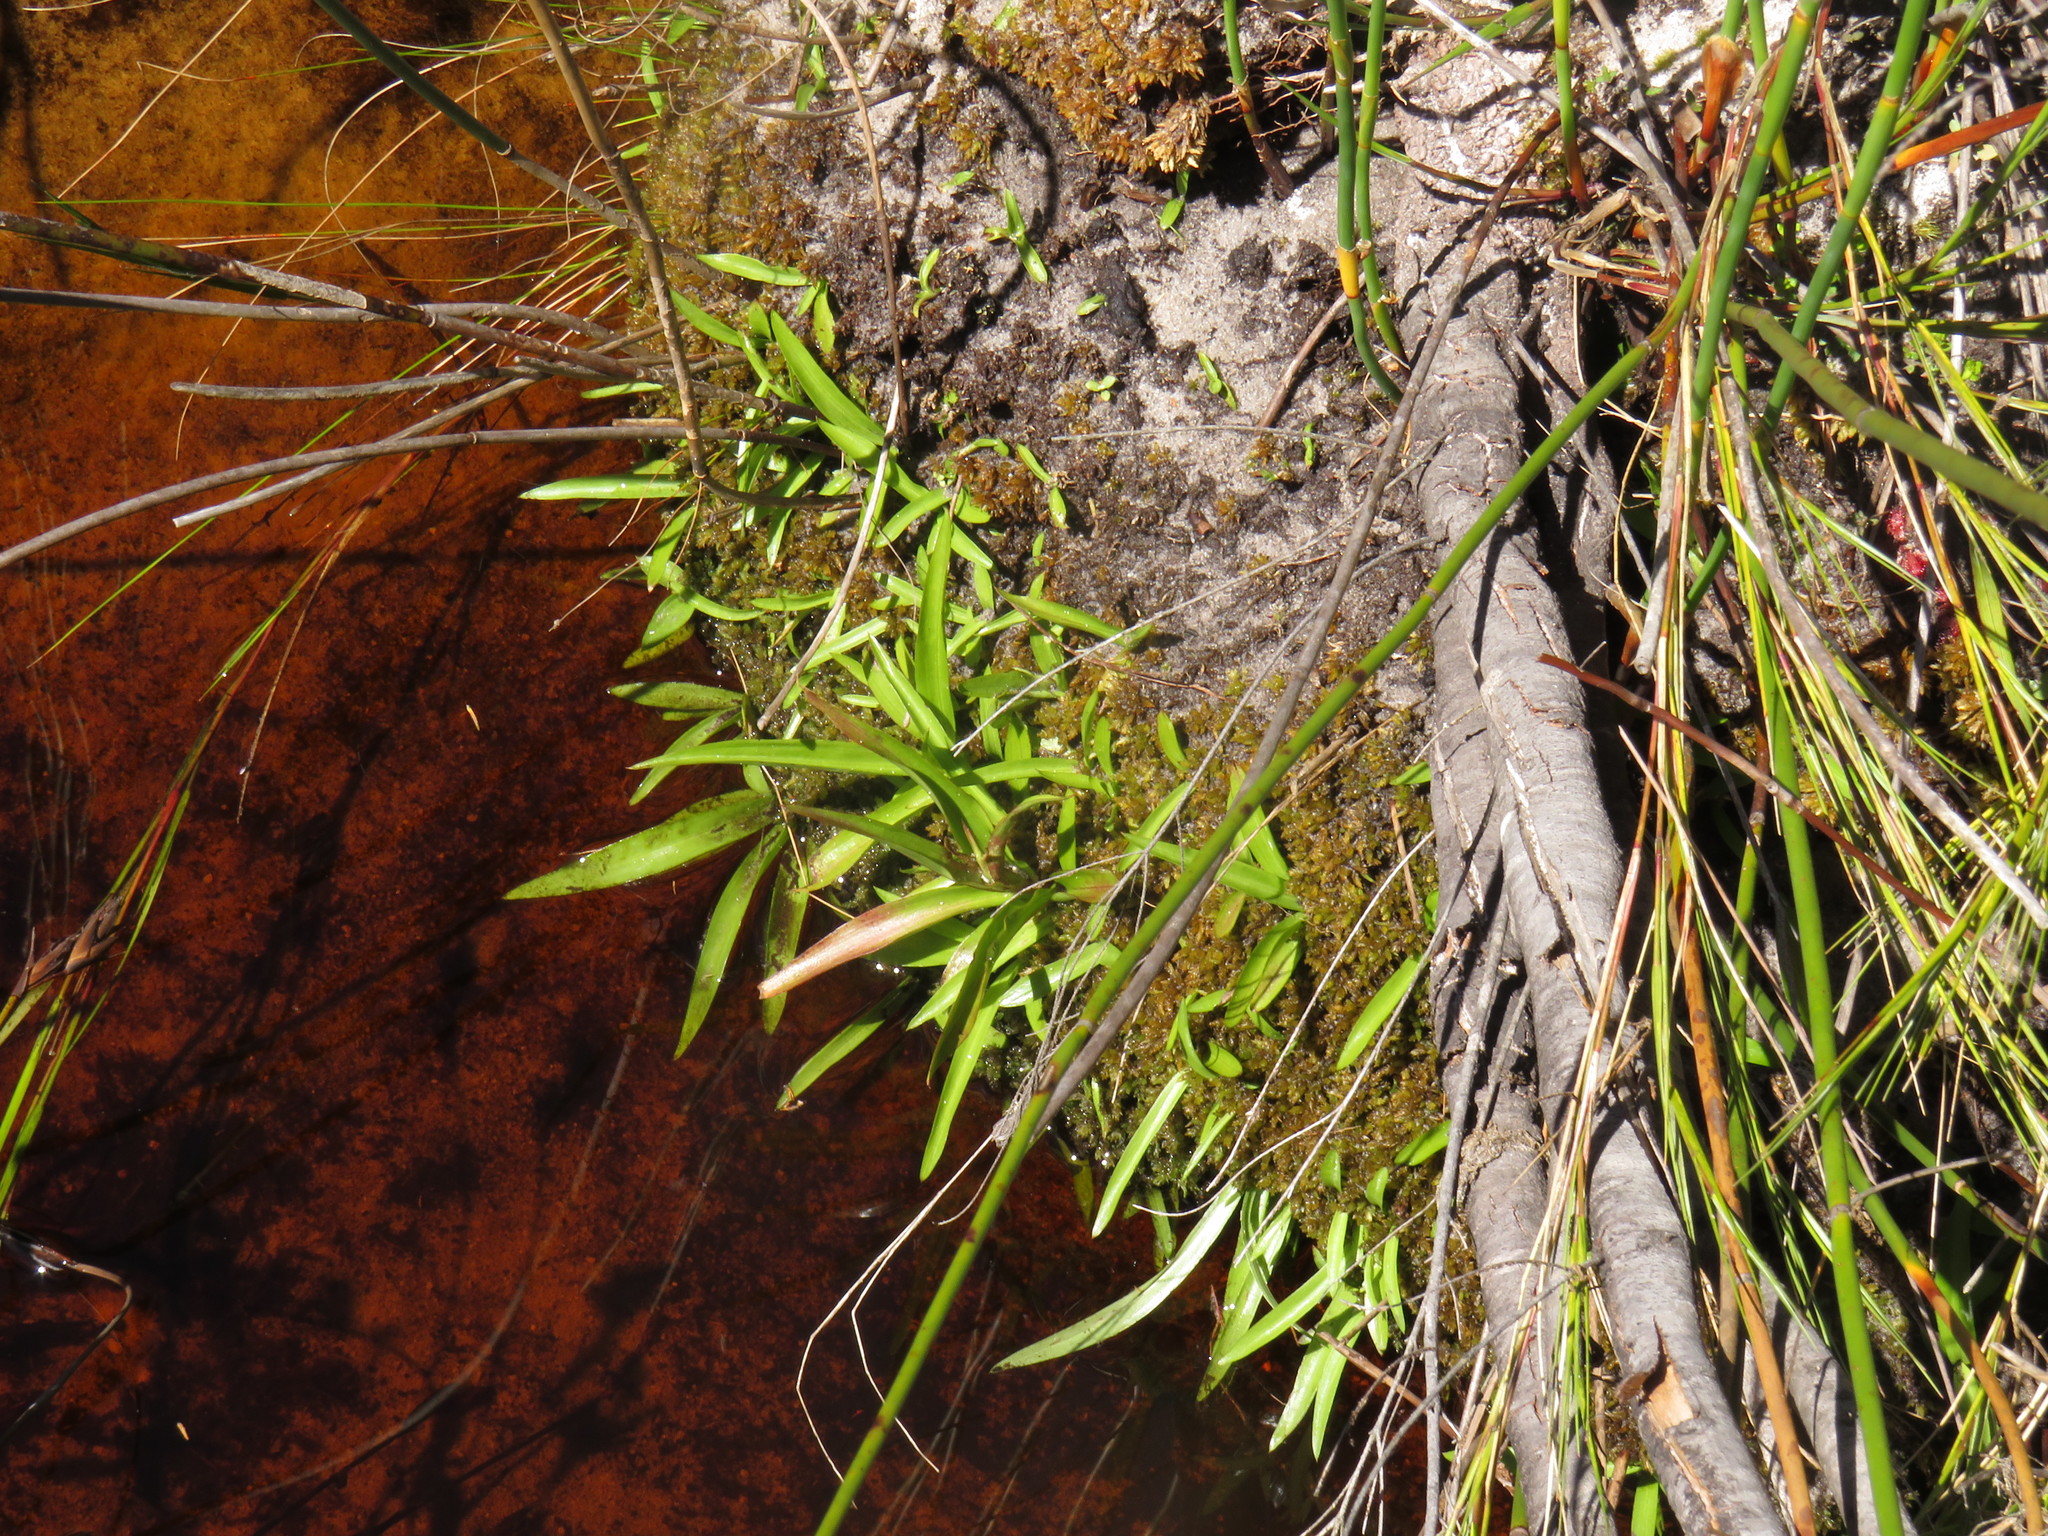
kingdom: Plantae
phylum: Tracheophyta
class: Liliopsida
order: Asparagales
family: Orchidaceae
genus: Disa
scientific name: Disa uniflora
